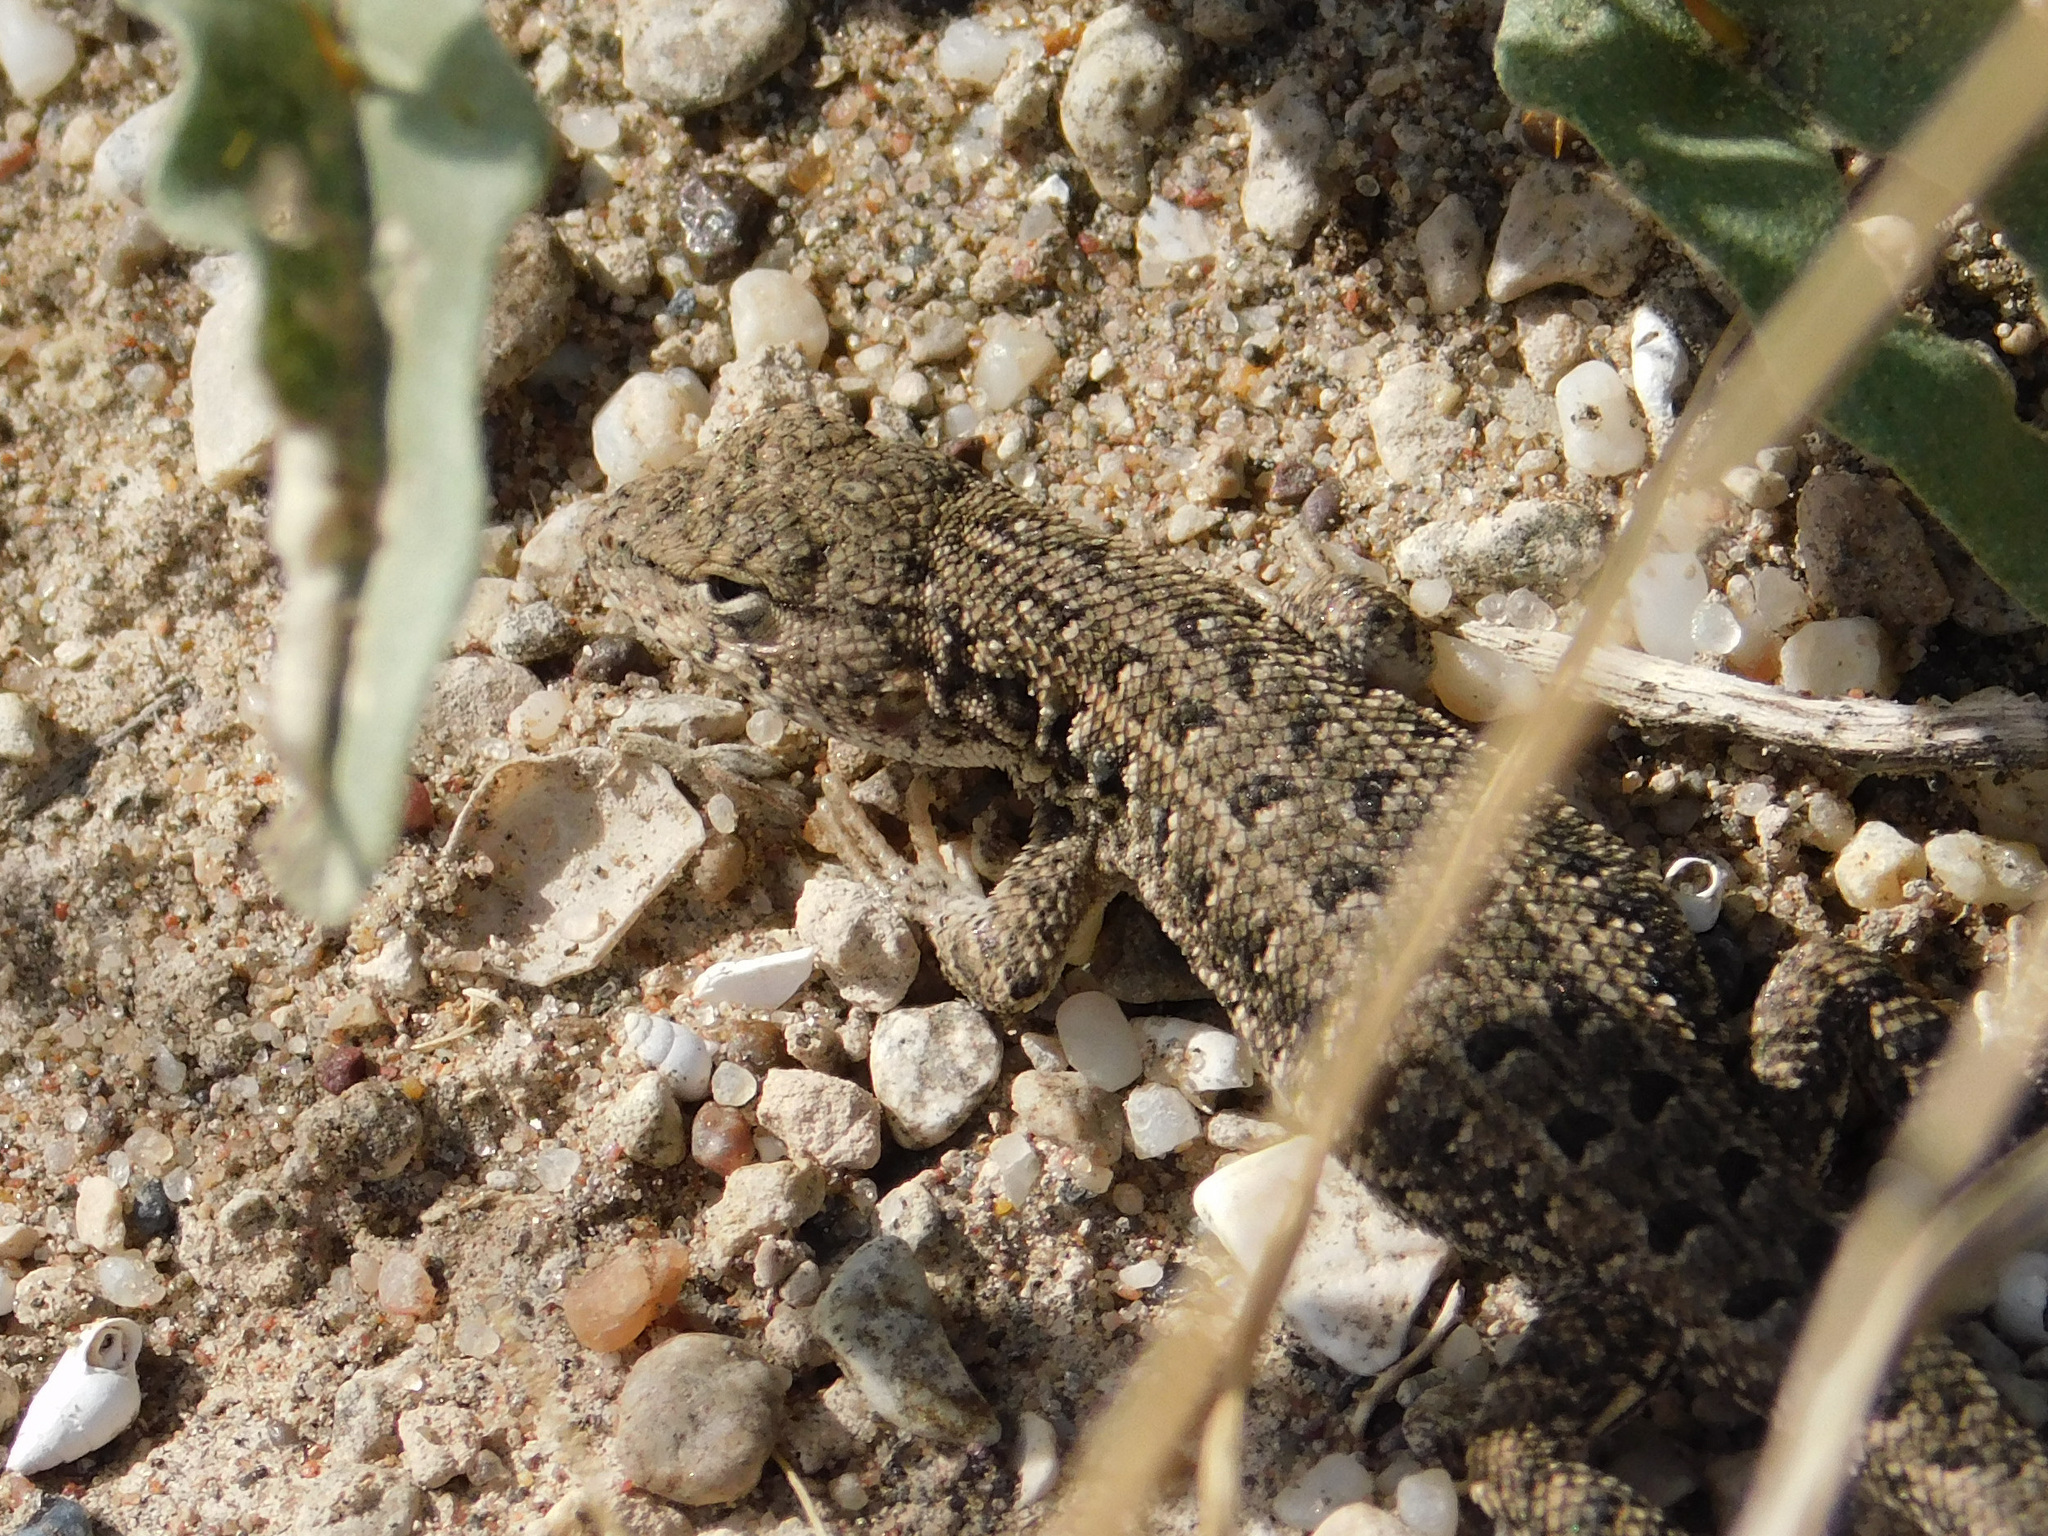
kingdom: Animalia
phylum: Chordata
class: Squamata
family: Liolaemidae
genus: Liolaemus
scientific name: Liolaemus wiegmannii
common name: Wiegmann's tree iguana
